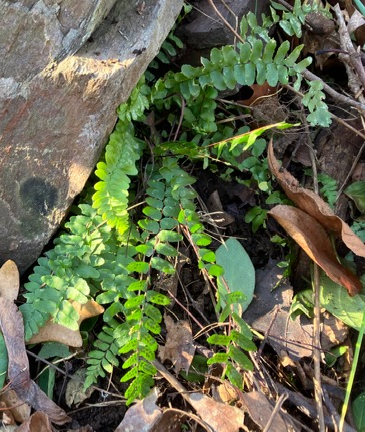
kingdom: Plantae
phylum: Tracheophyta
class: Polypodiopsida
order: Polypodiales
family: Aspleniaceae
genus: Asplenium
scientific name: Asplenium platyneuron
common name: Ebony spleenwort
